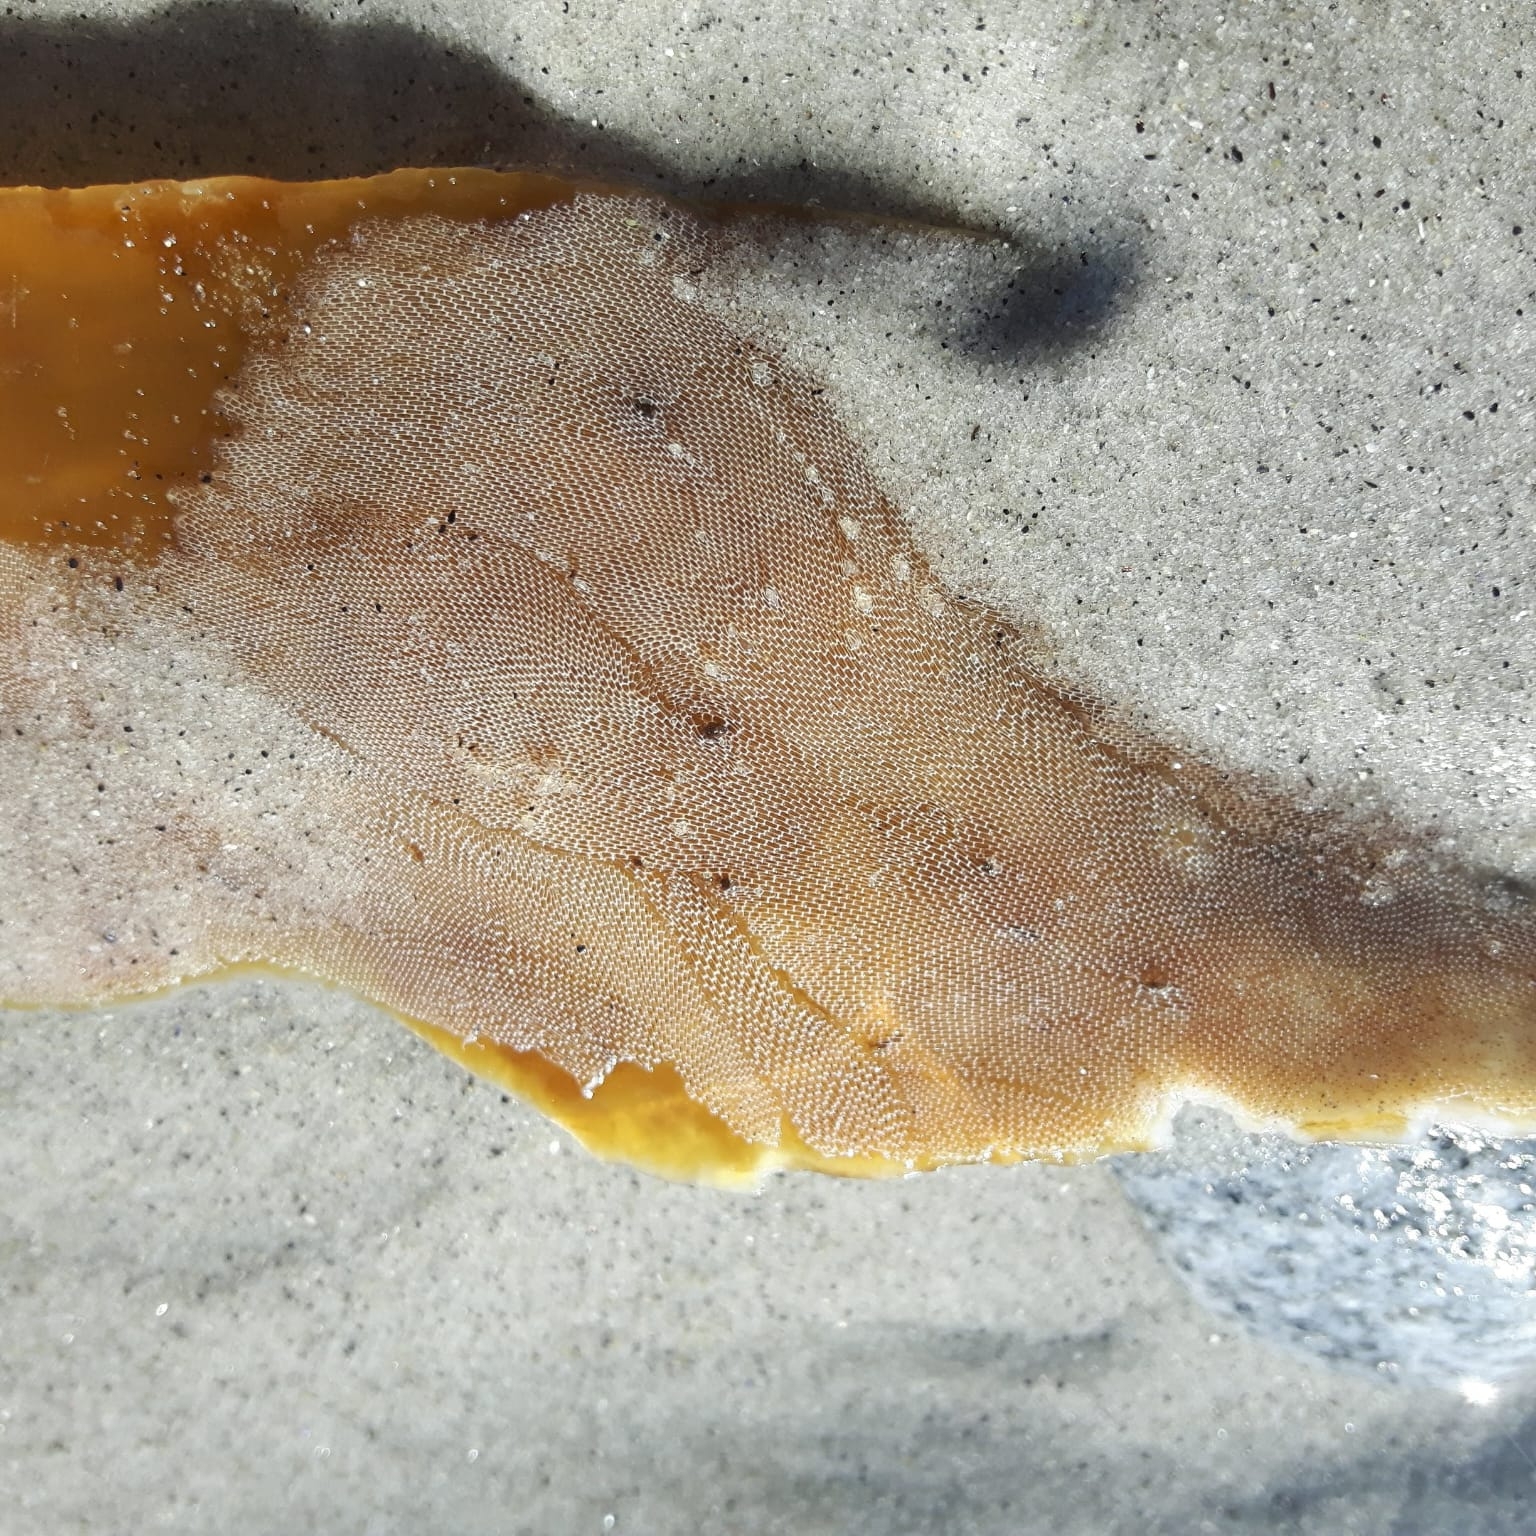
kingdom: Animalia
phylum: Bryozoa
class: Gymnolaemata
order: Cheilostomatida
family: Membraniporidae
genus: Membranipora
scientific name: Membranipora membranacea
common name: Sea mat
